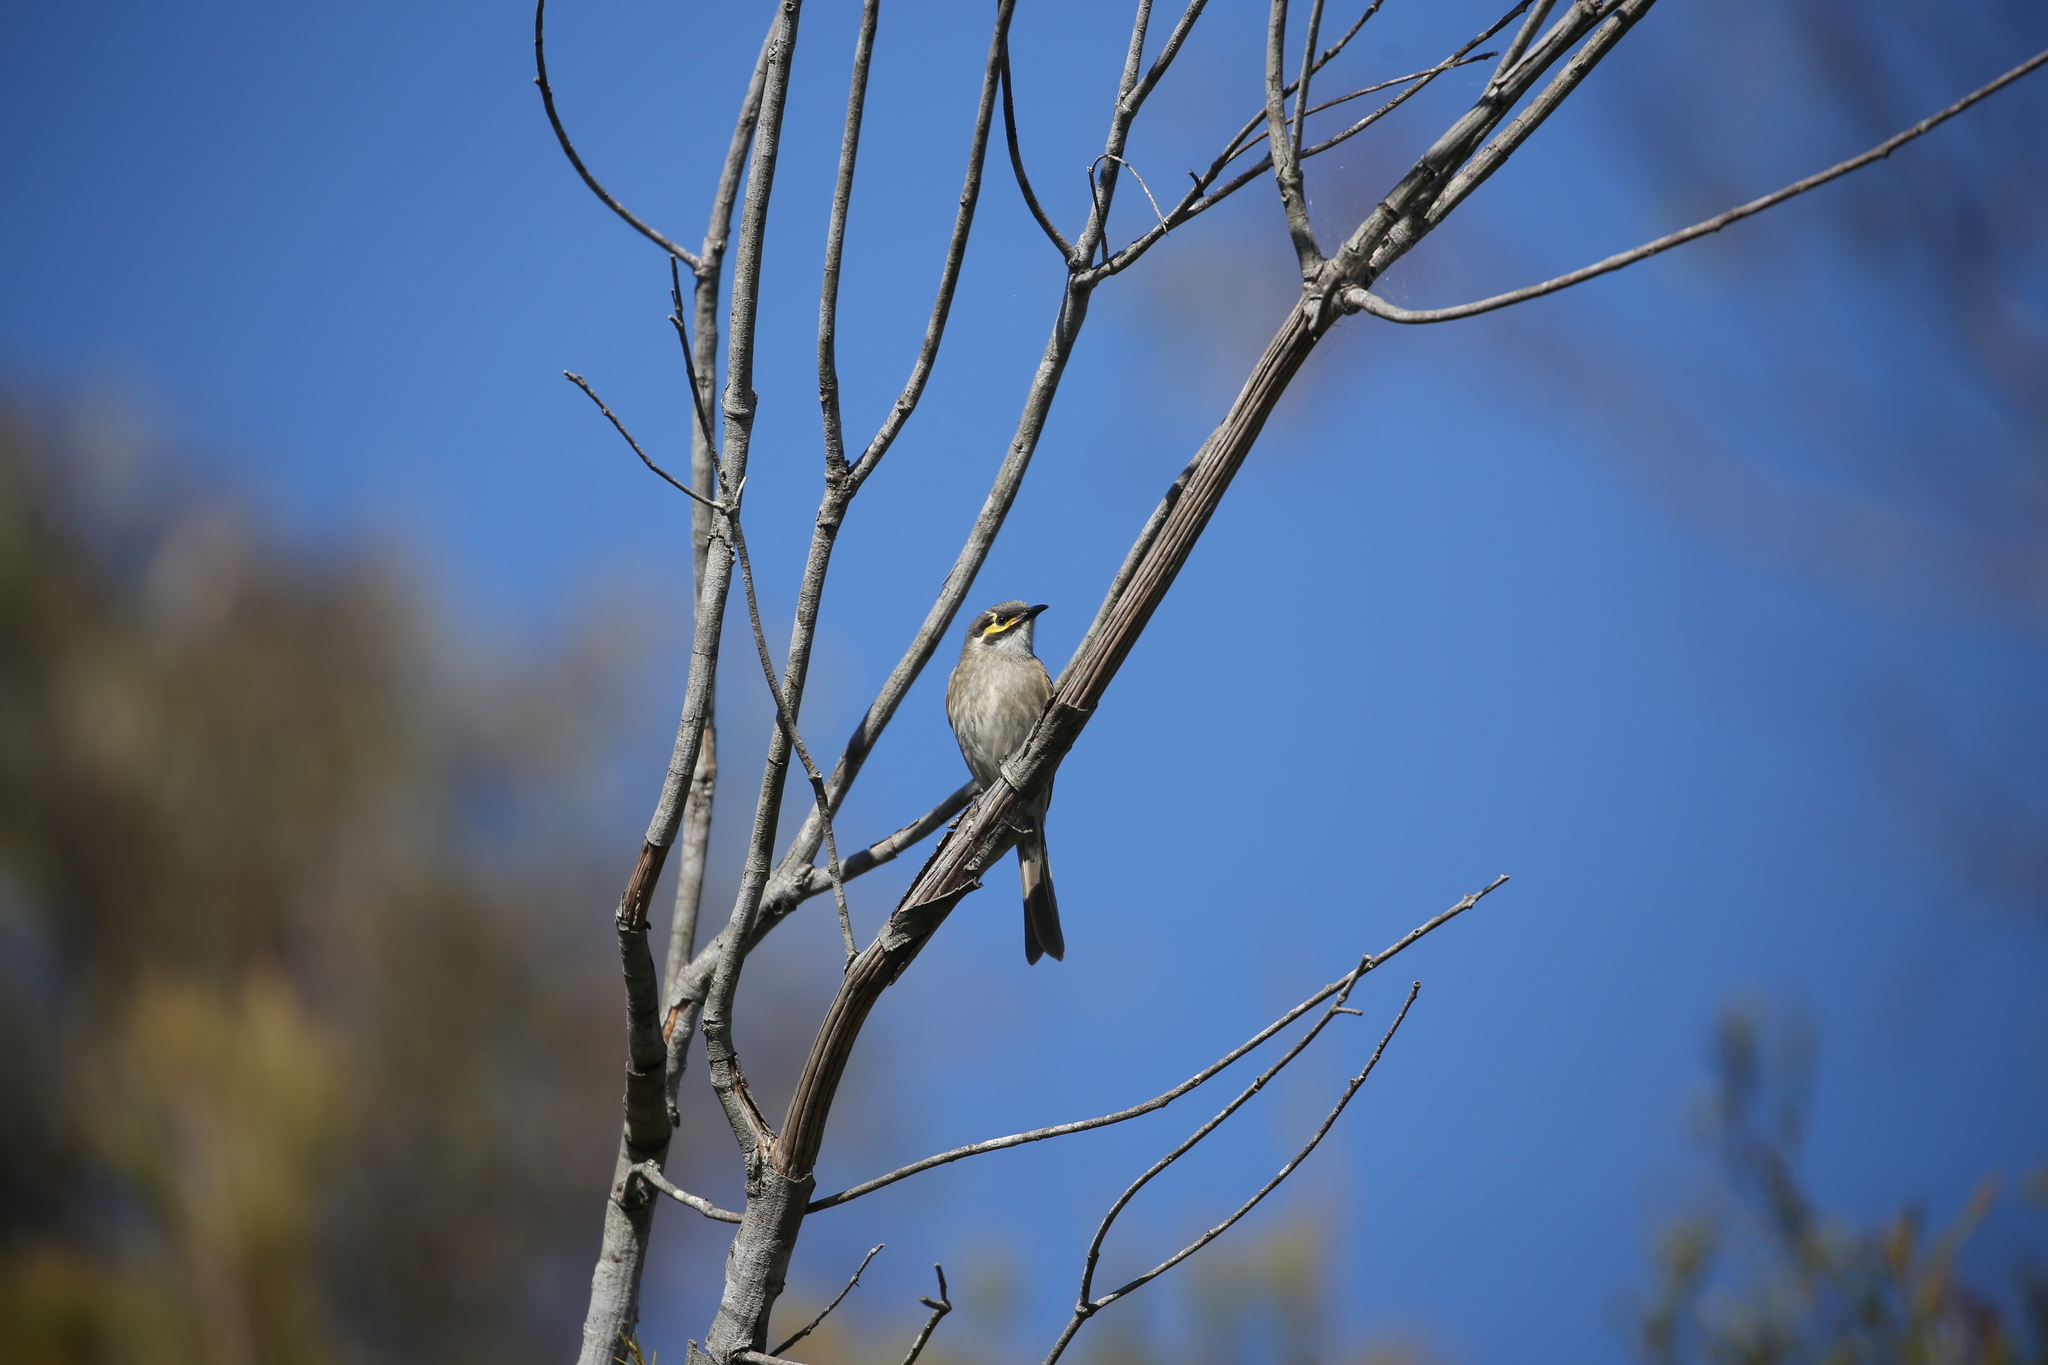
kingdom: Animalia
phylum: Chordata
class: Aves
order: Passeriformes
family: Meliphagidae
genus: Caligavis
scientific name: Caligavis chrysops
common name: Yellow-faced honeyeater
